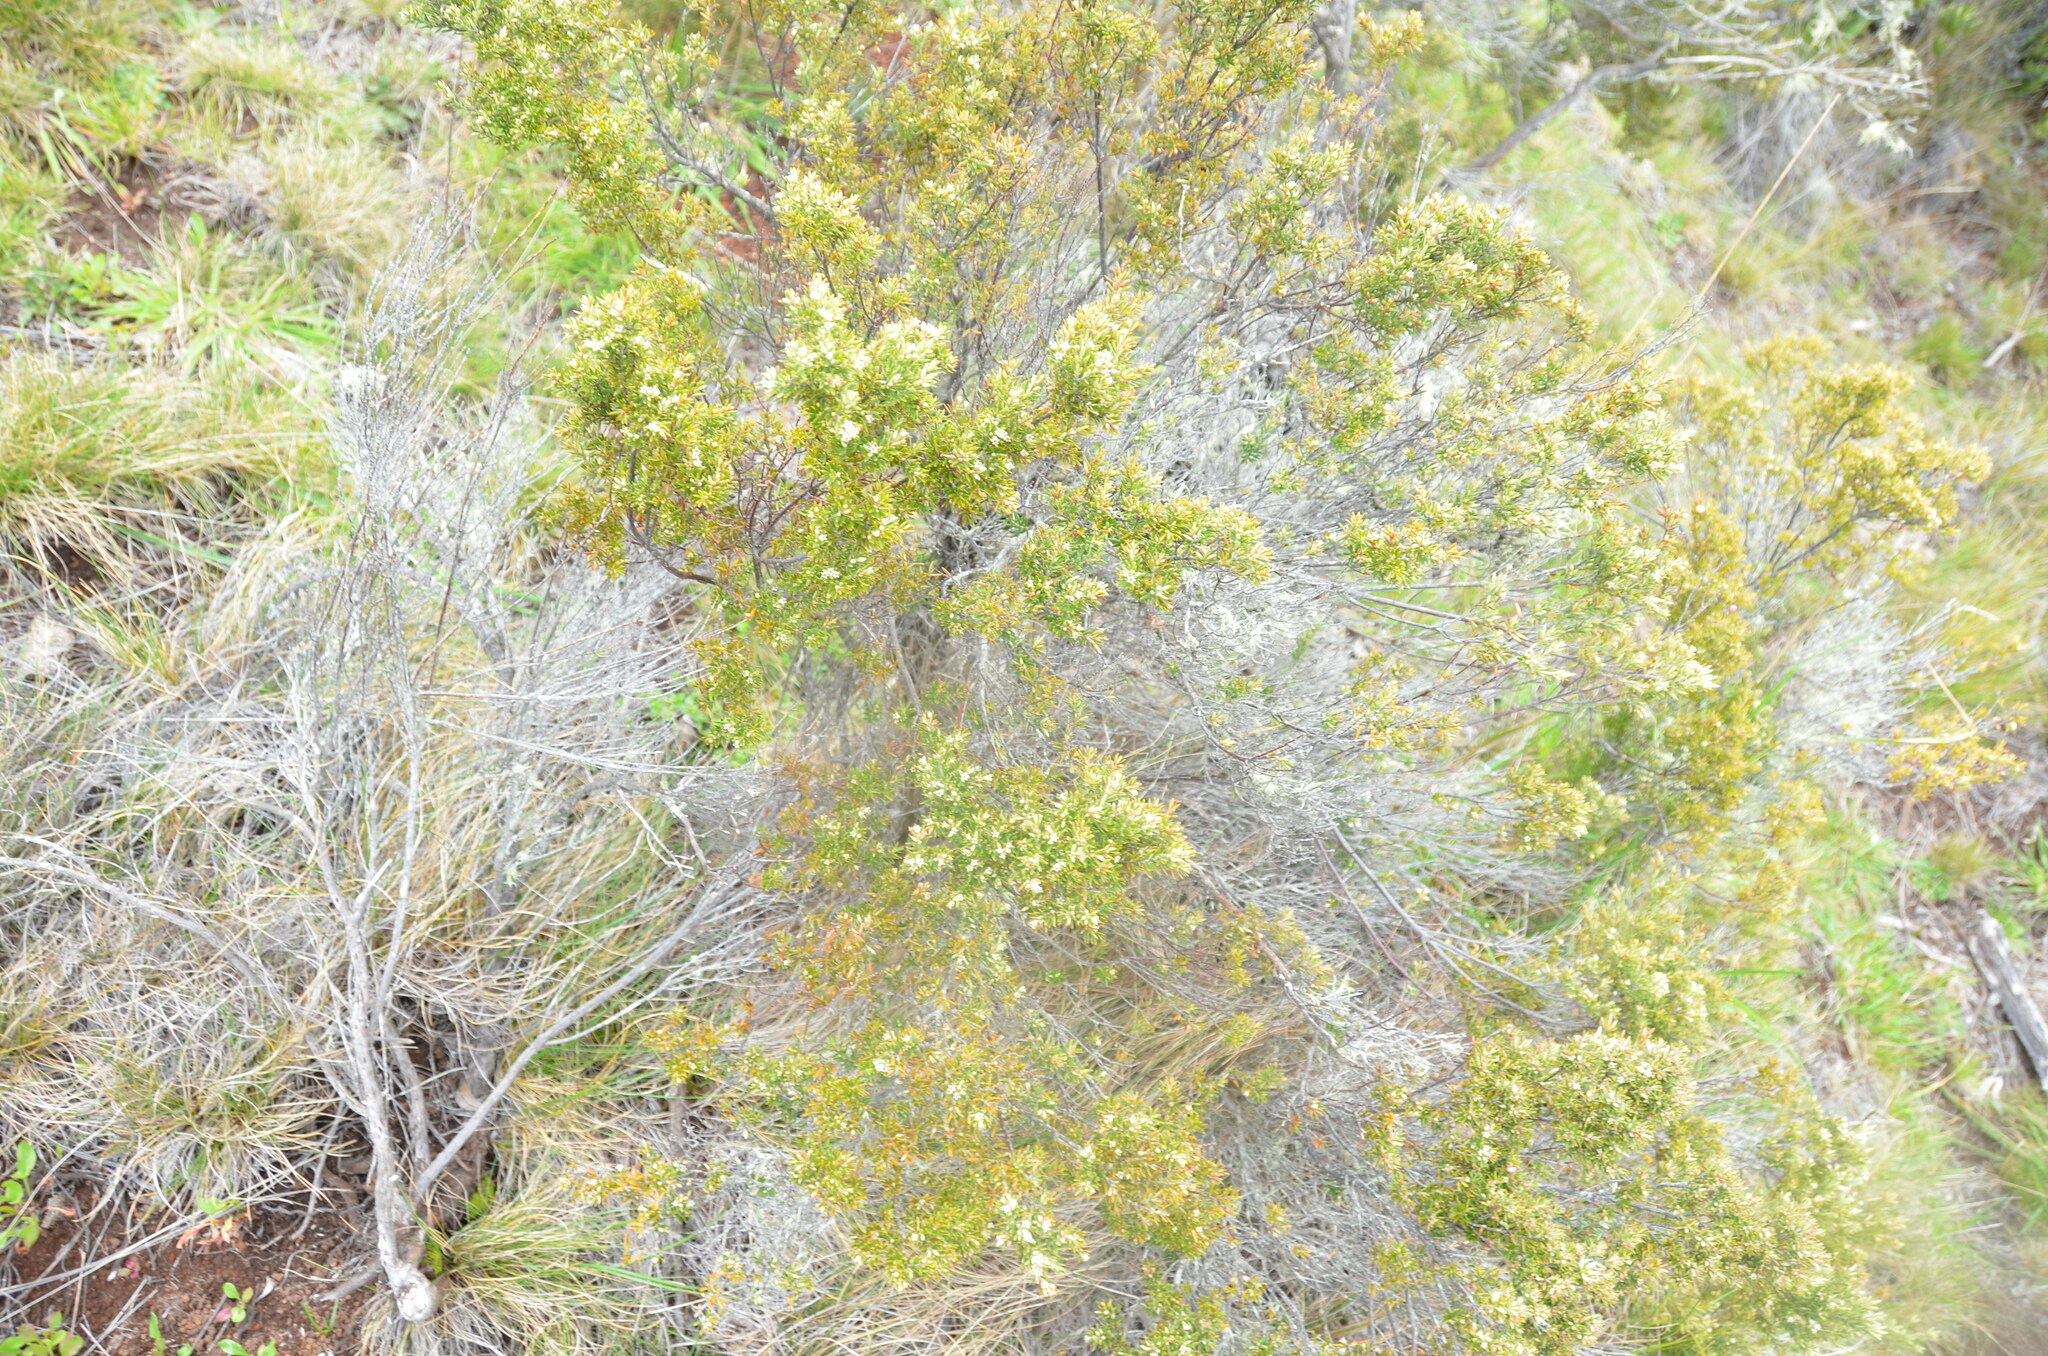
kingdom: Plantae
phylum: Tracheophyta
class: Magnoliopsida
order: Ericales
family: Ericaceae
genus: Leptecophylla
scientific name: Leptecophylla tameiameiae
